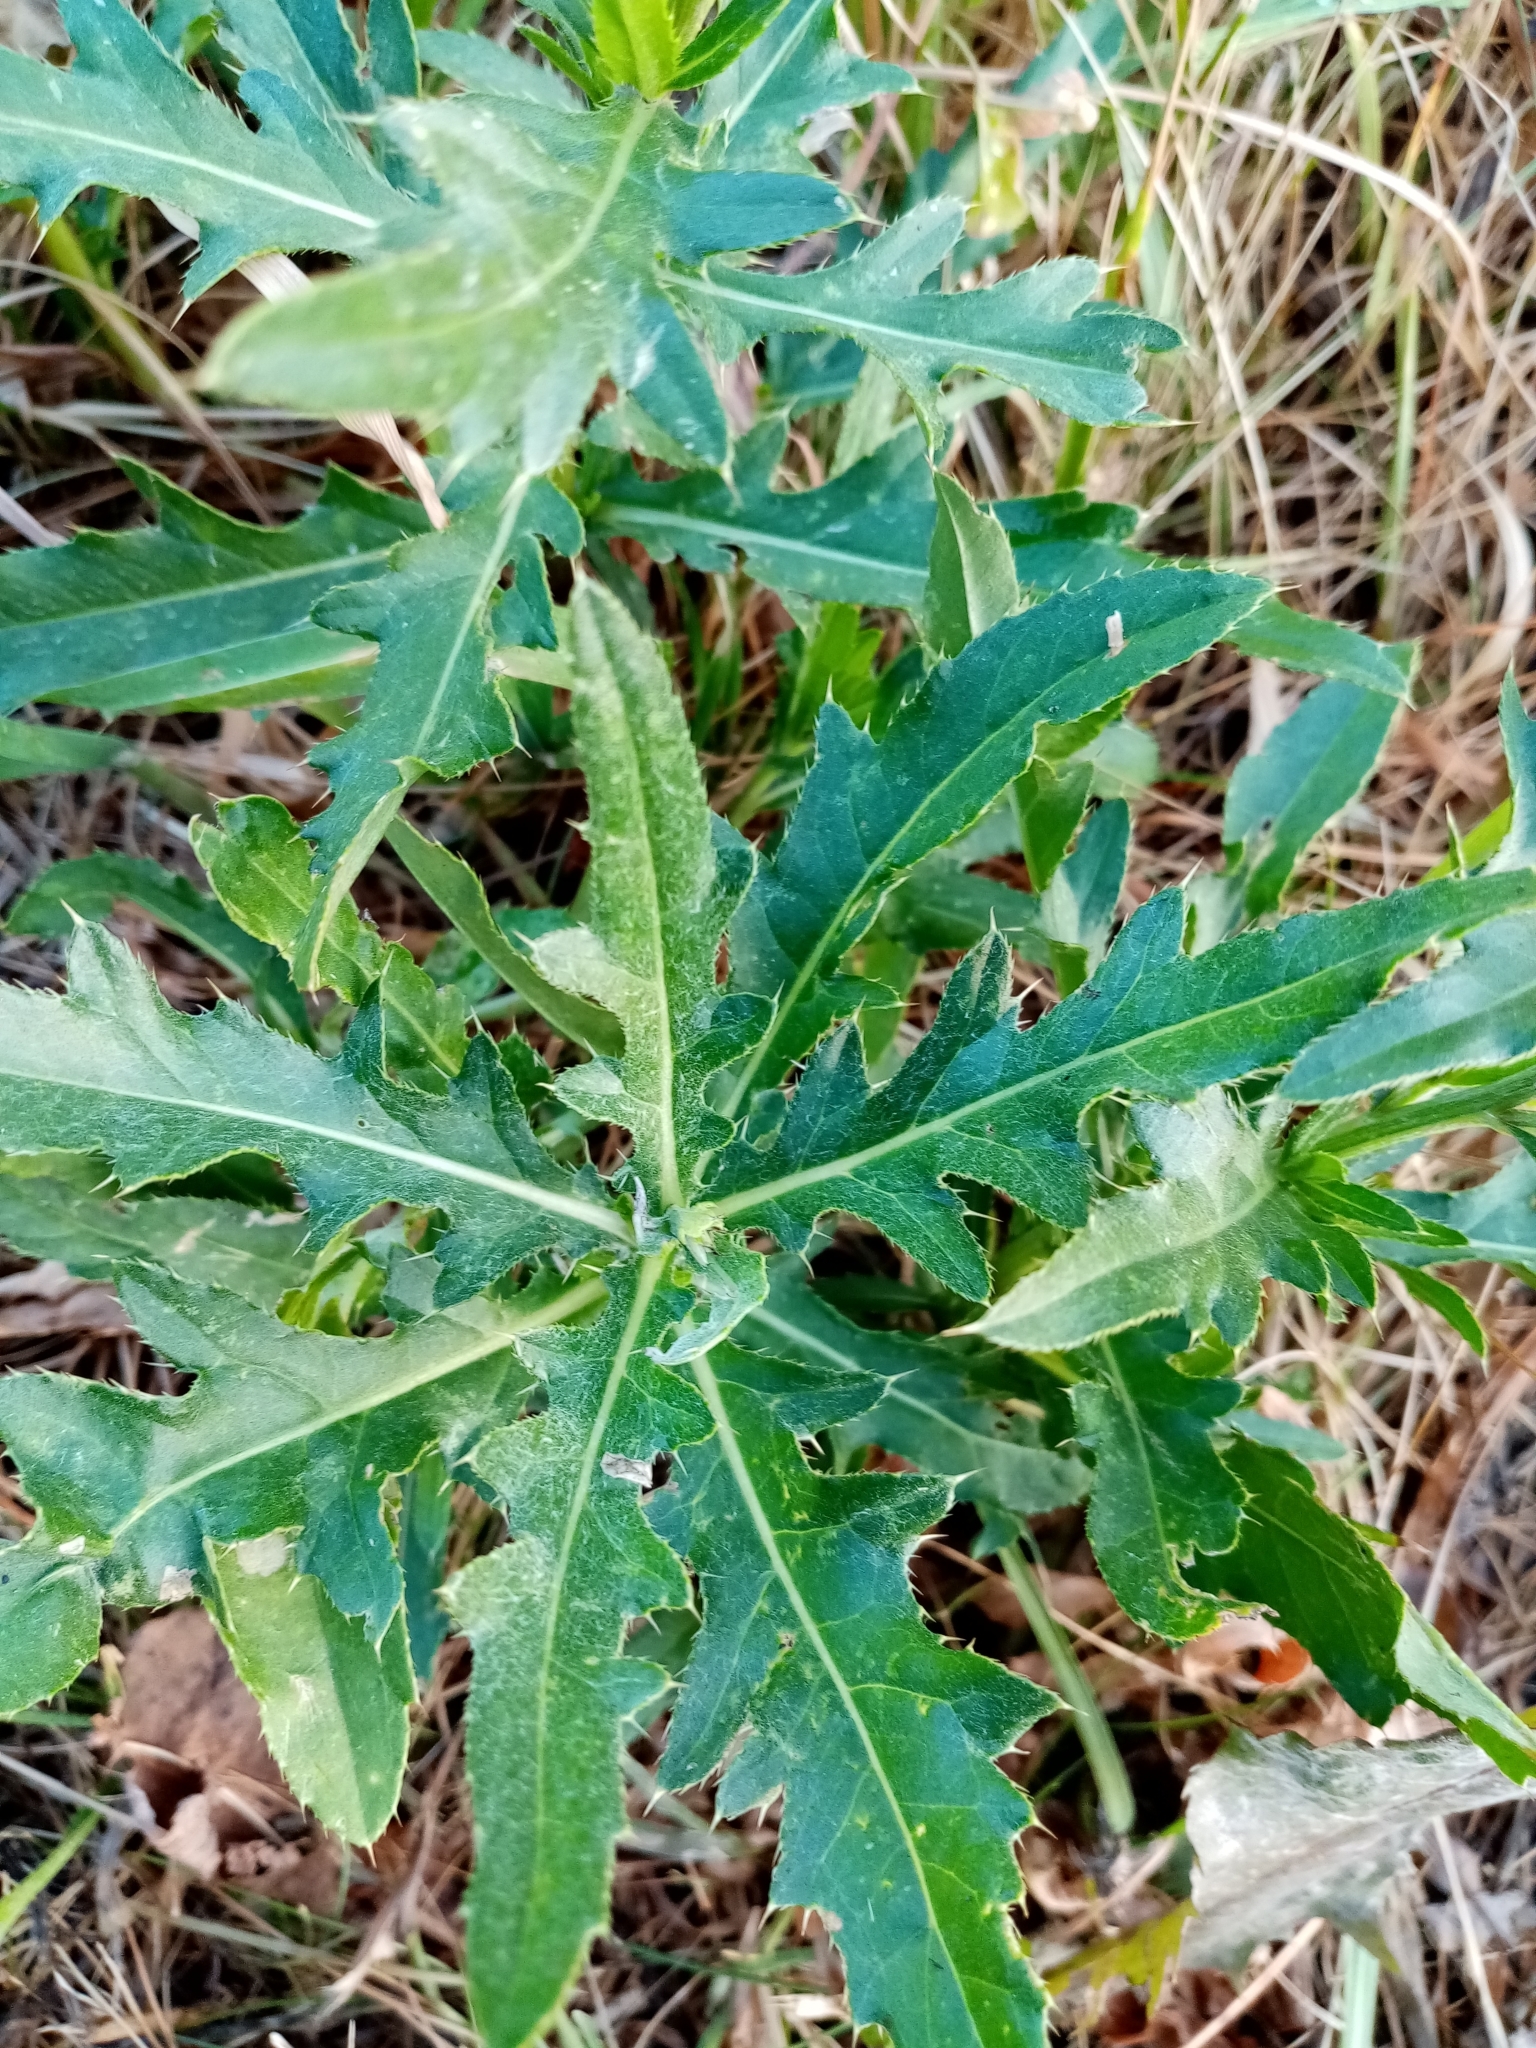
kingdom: Plantae
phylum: Tracheophyta
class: Magnoliopsida
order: Asterales
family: Asteraceae
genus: Cirsium
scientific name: Cirsium arvense
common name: Creeping thistle
